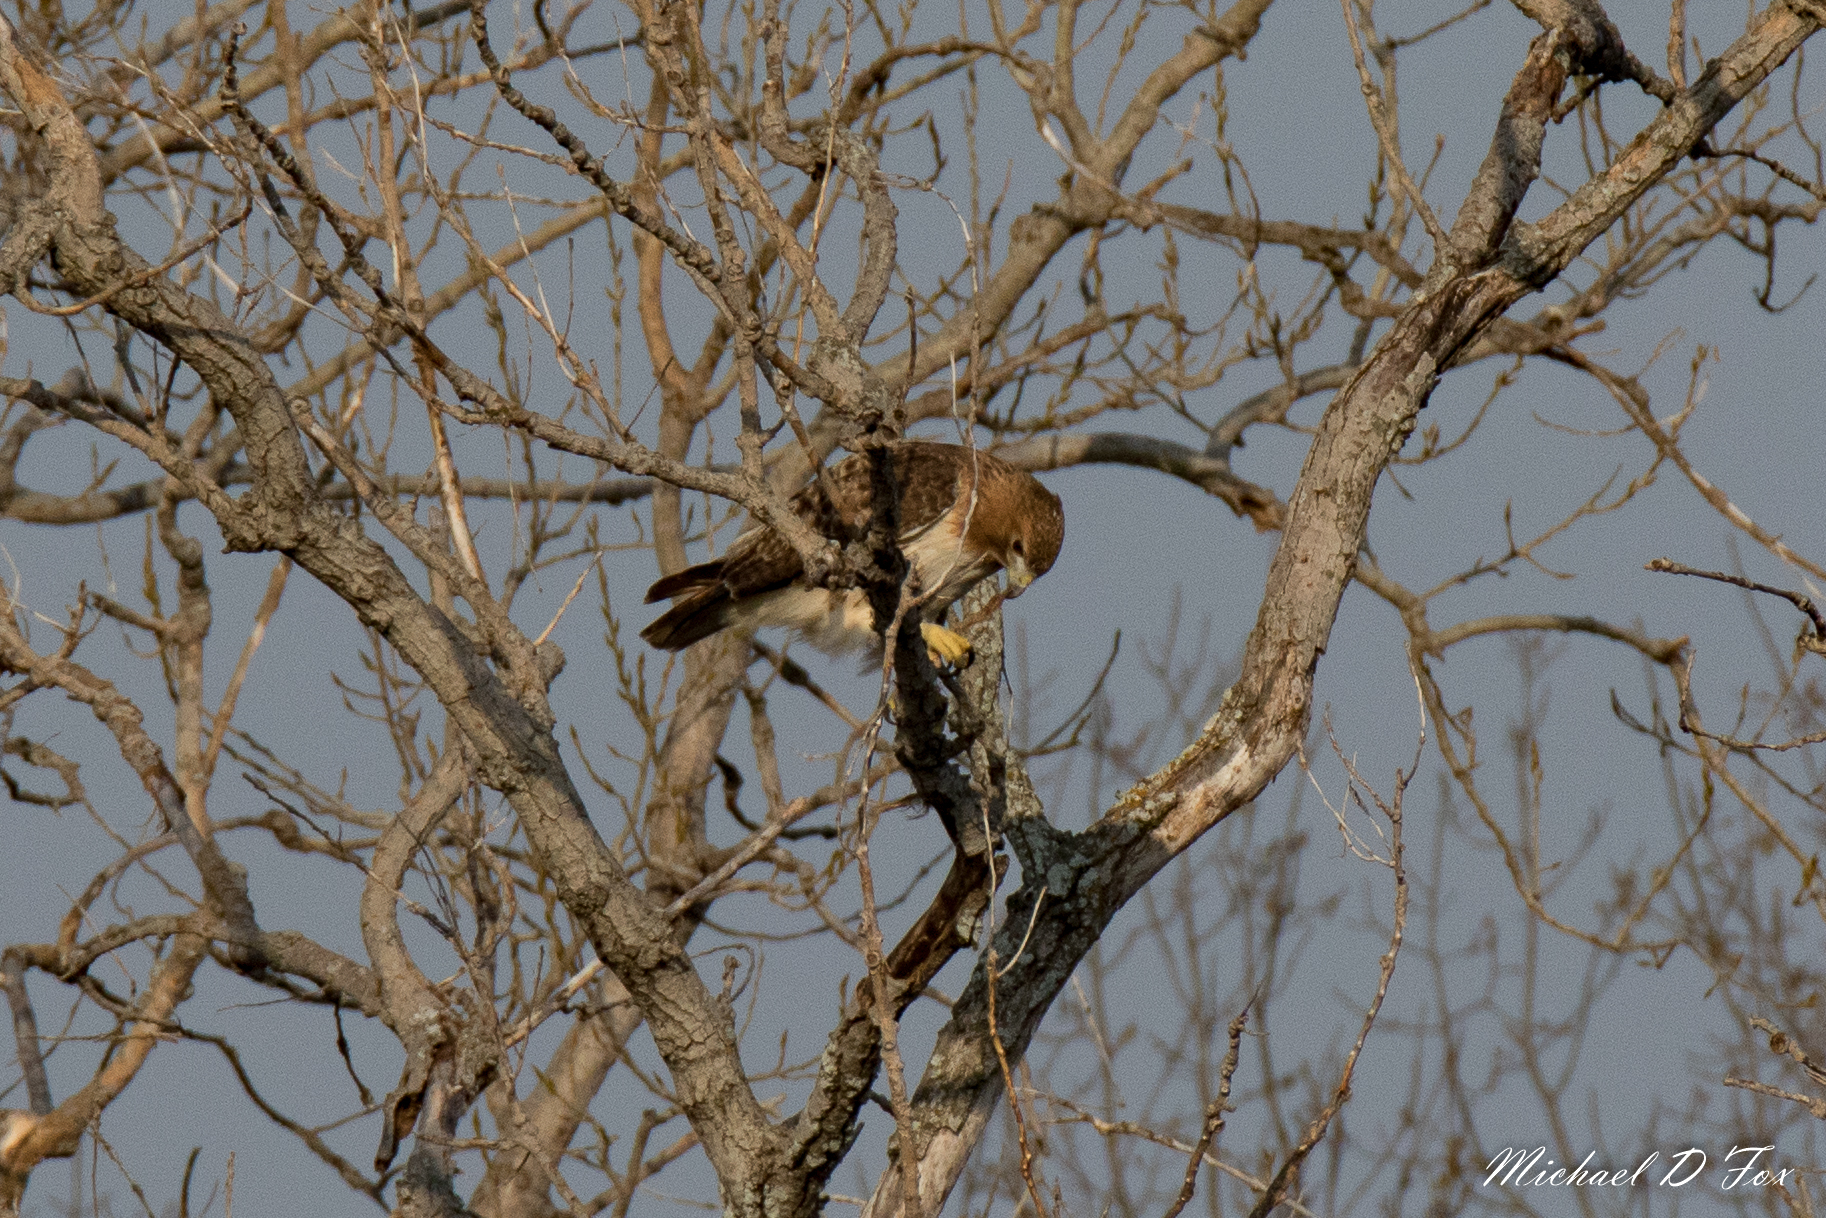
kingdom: Animalia
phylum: Chordata
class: Aves
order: Accipitriformes
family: Accipitridae
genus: Buteo
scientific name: Buteo jamaicensis
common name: Red-tailed hawk
